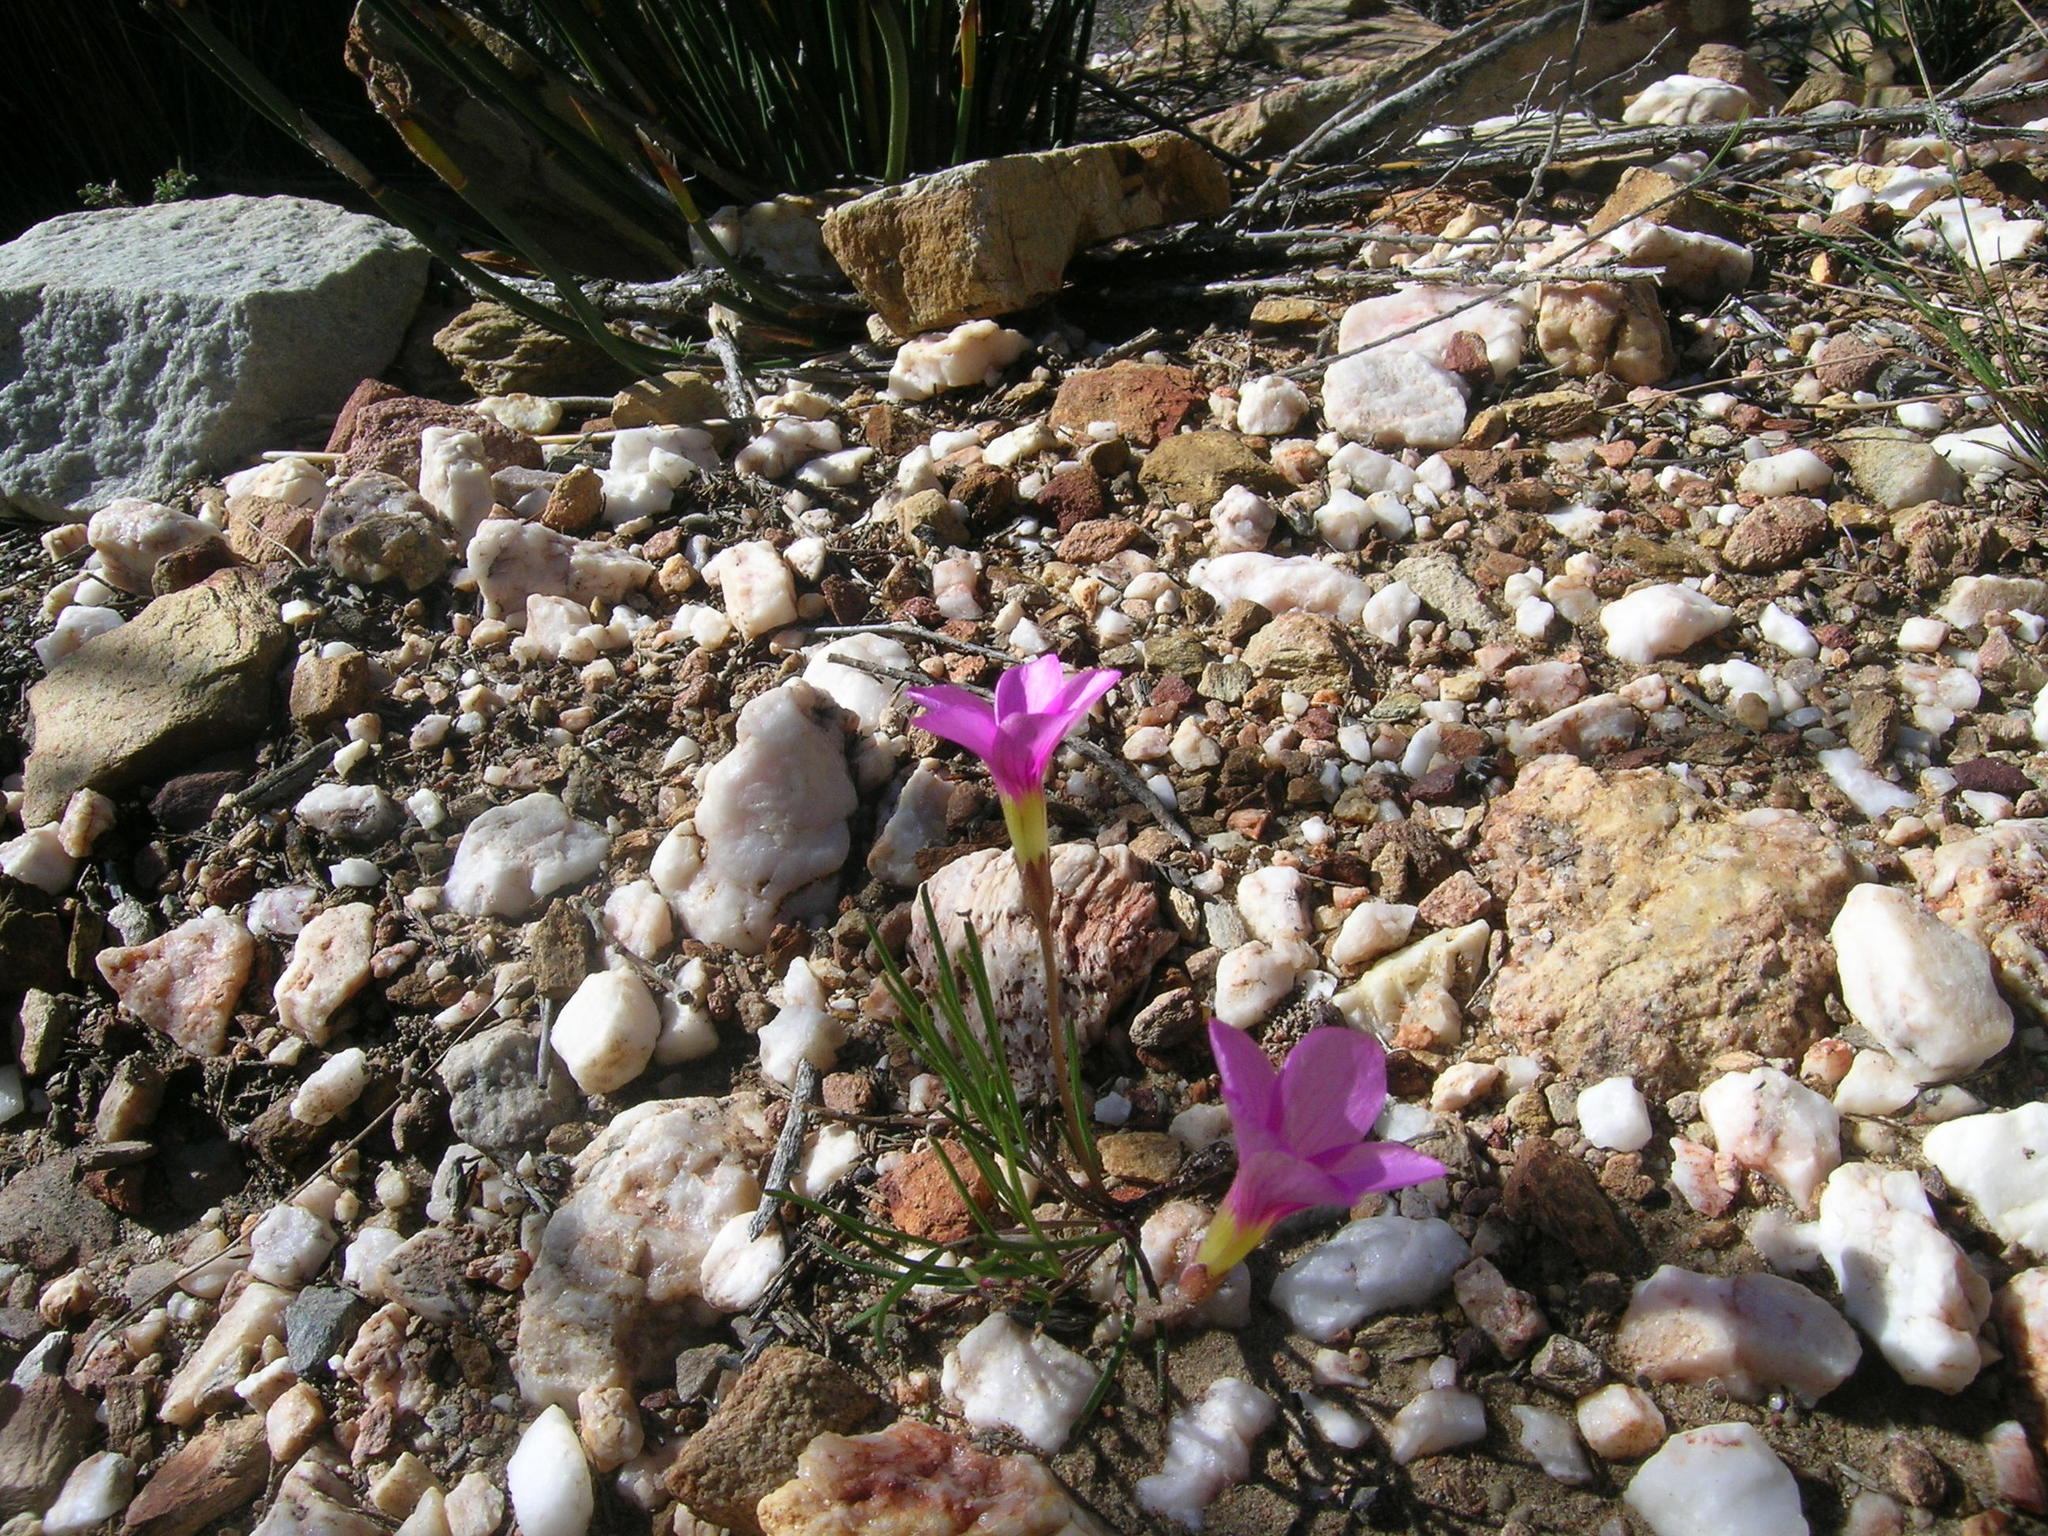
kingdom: Plantae
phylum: Tracheophyta
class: Magnoliopsida
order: Oxalidales
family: Oxalidaceae
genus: Oxalis
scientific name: Oxalis polyphylla
